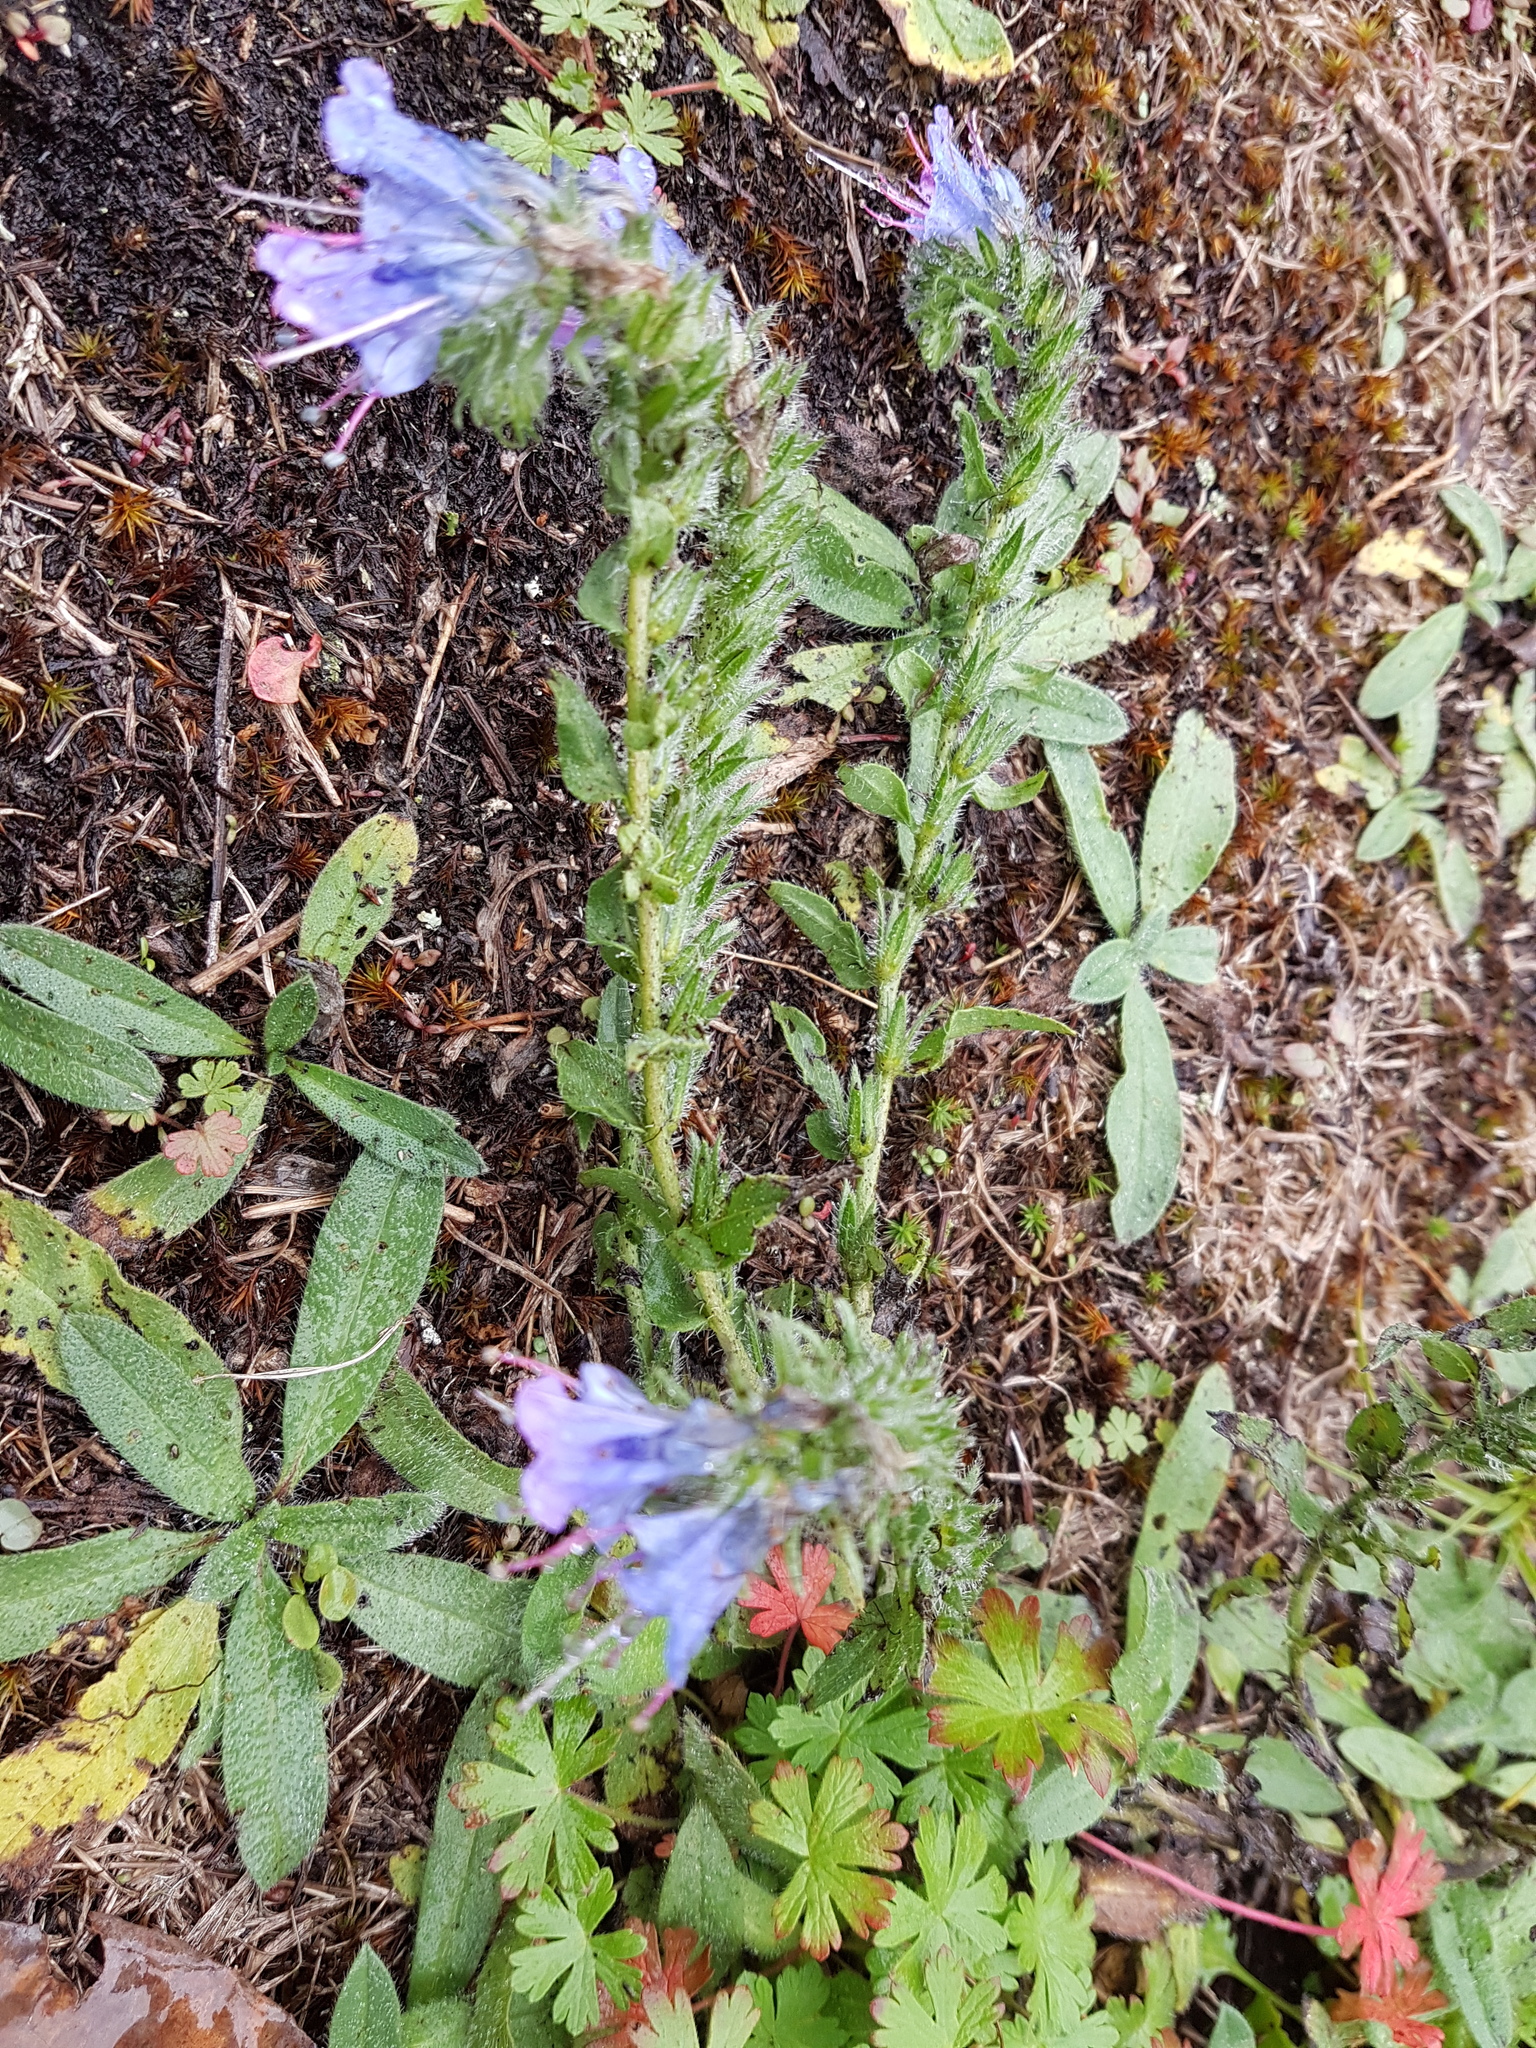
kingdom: Plantae
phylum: Tracheophyta
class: Magnoliopsida
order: Boraginales
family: Boraginaceae
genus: Echium
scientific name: Echium vulgare
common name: Common viper's bugloss
